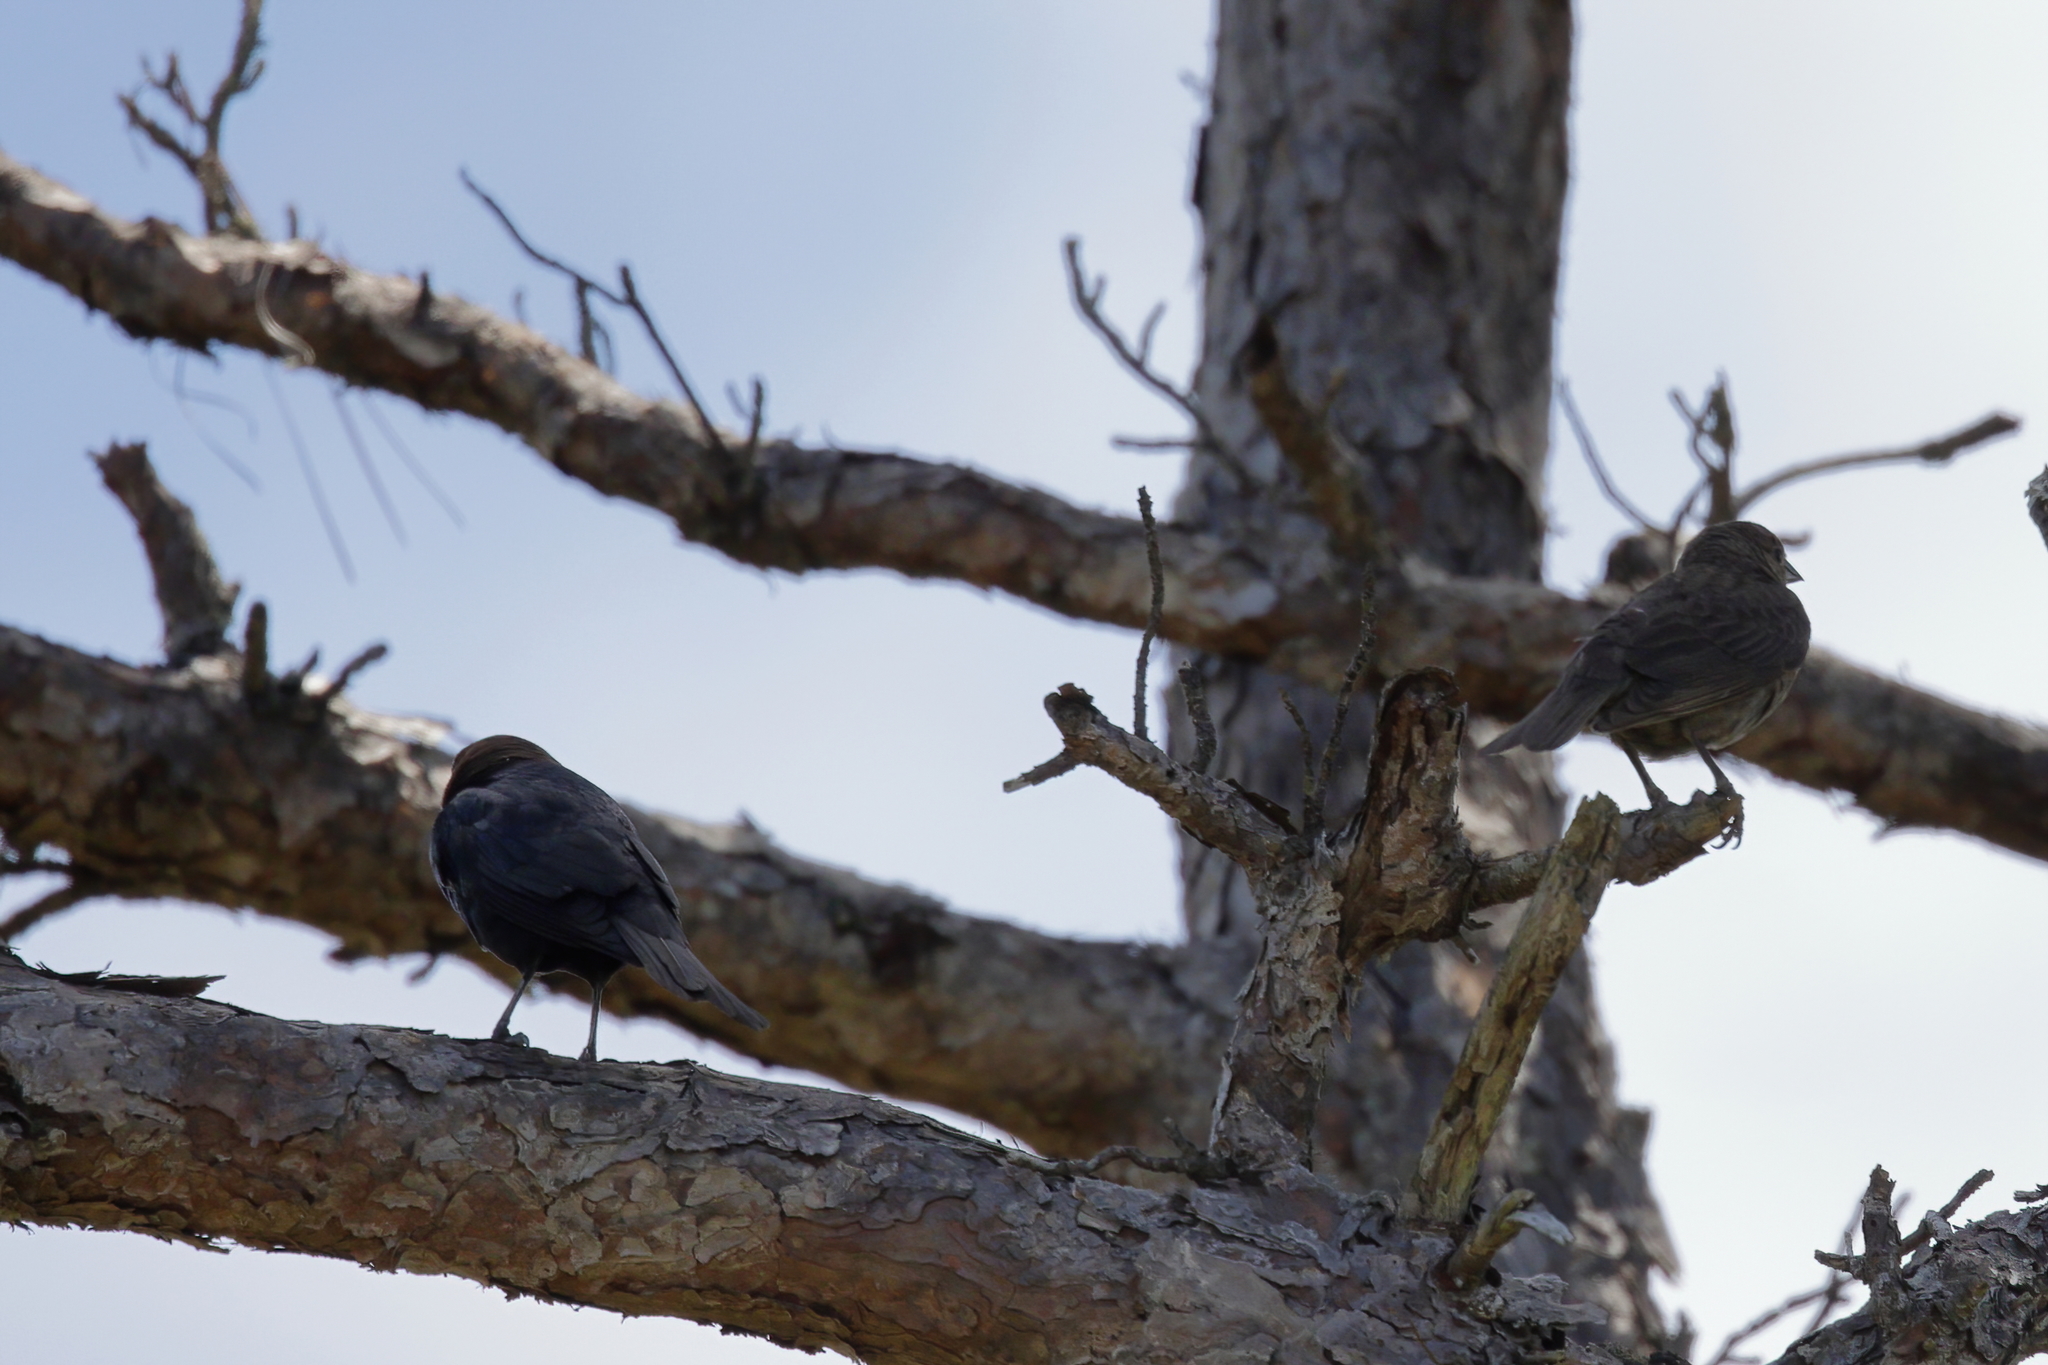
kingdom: Animalia
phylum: Chordata
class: Aves
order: Passeriformes
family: Icteridae
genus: Molothrus
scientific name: Molothrus ater
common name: Brown-headed cowbird
